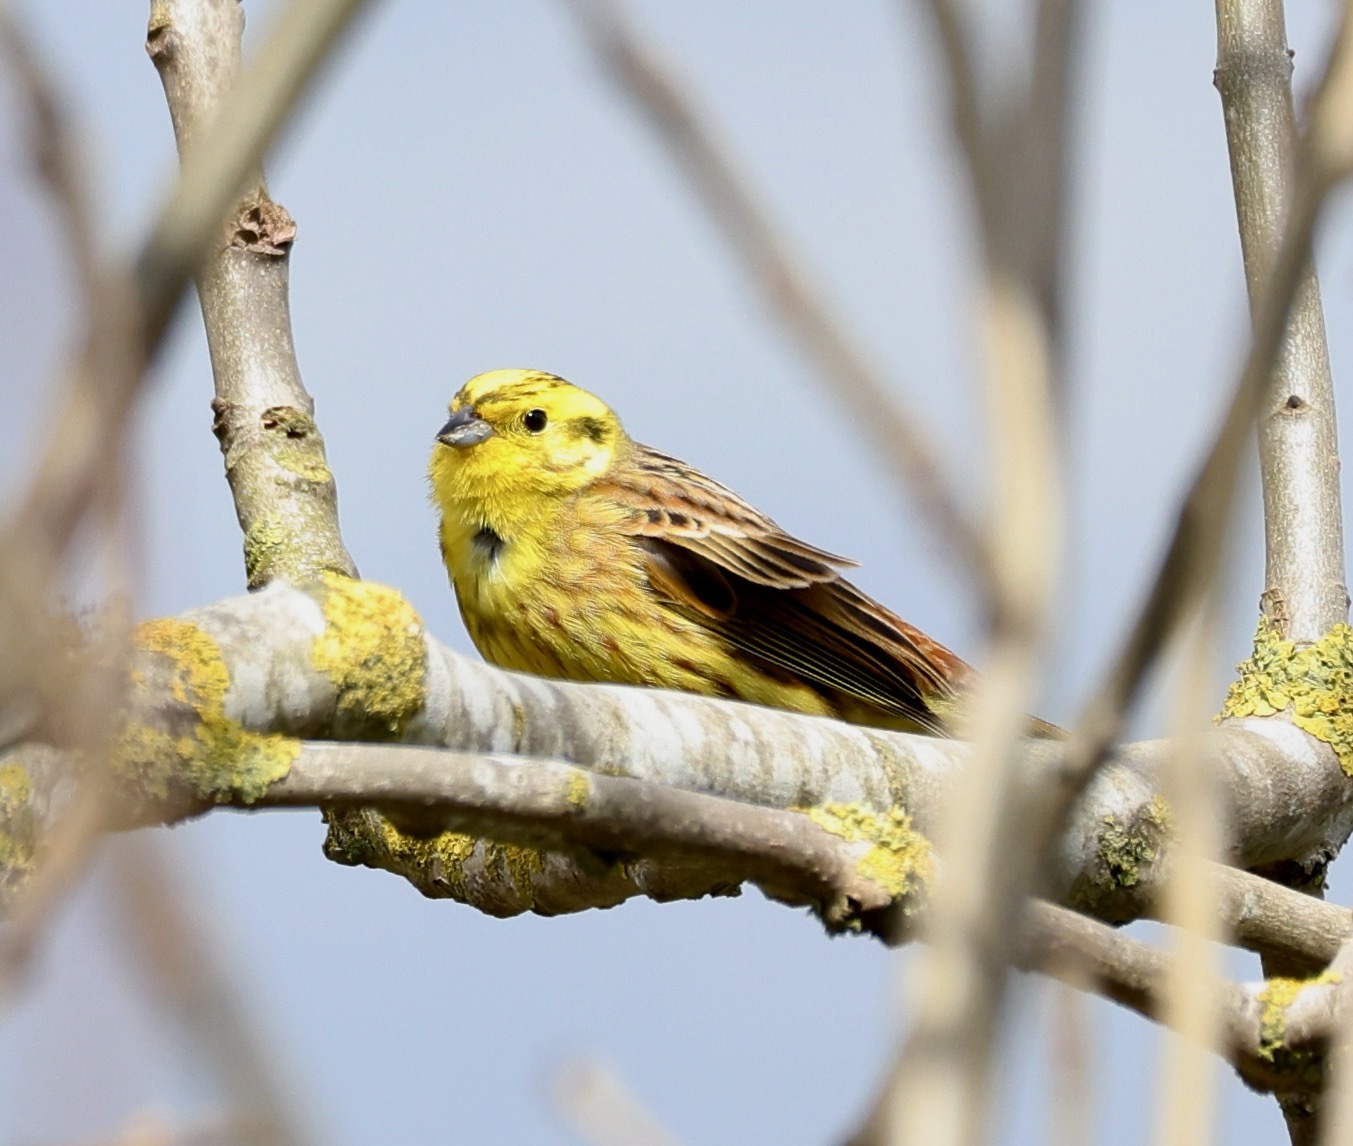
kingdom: Animalia
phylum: Chordata
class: Aves
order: Passeriformes
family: Emberizidae
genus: Emberiza
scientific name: Emberiza citrinella
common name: Yellowhammer
